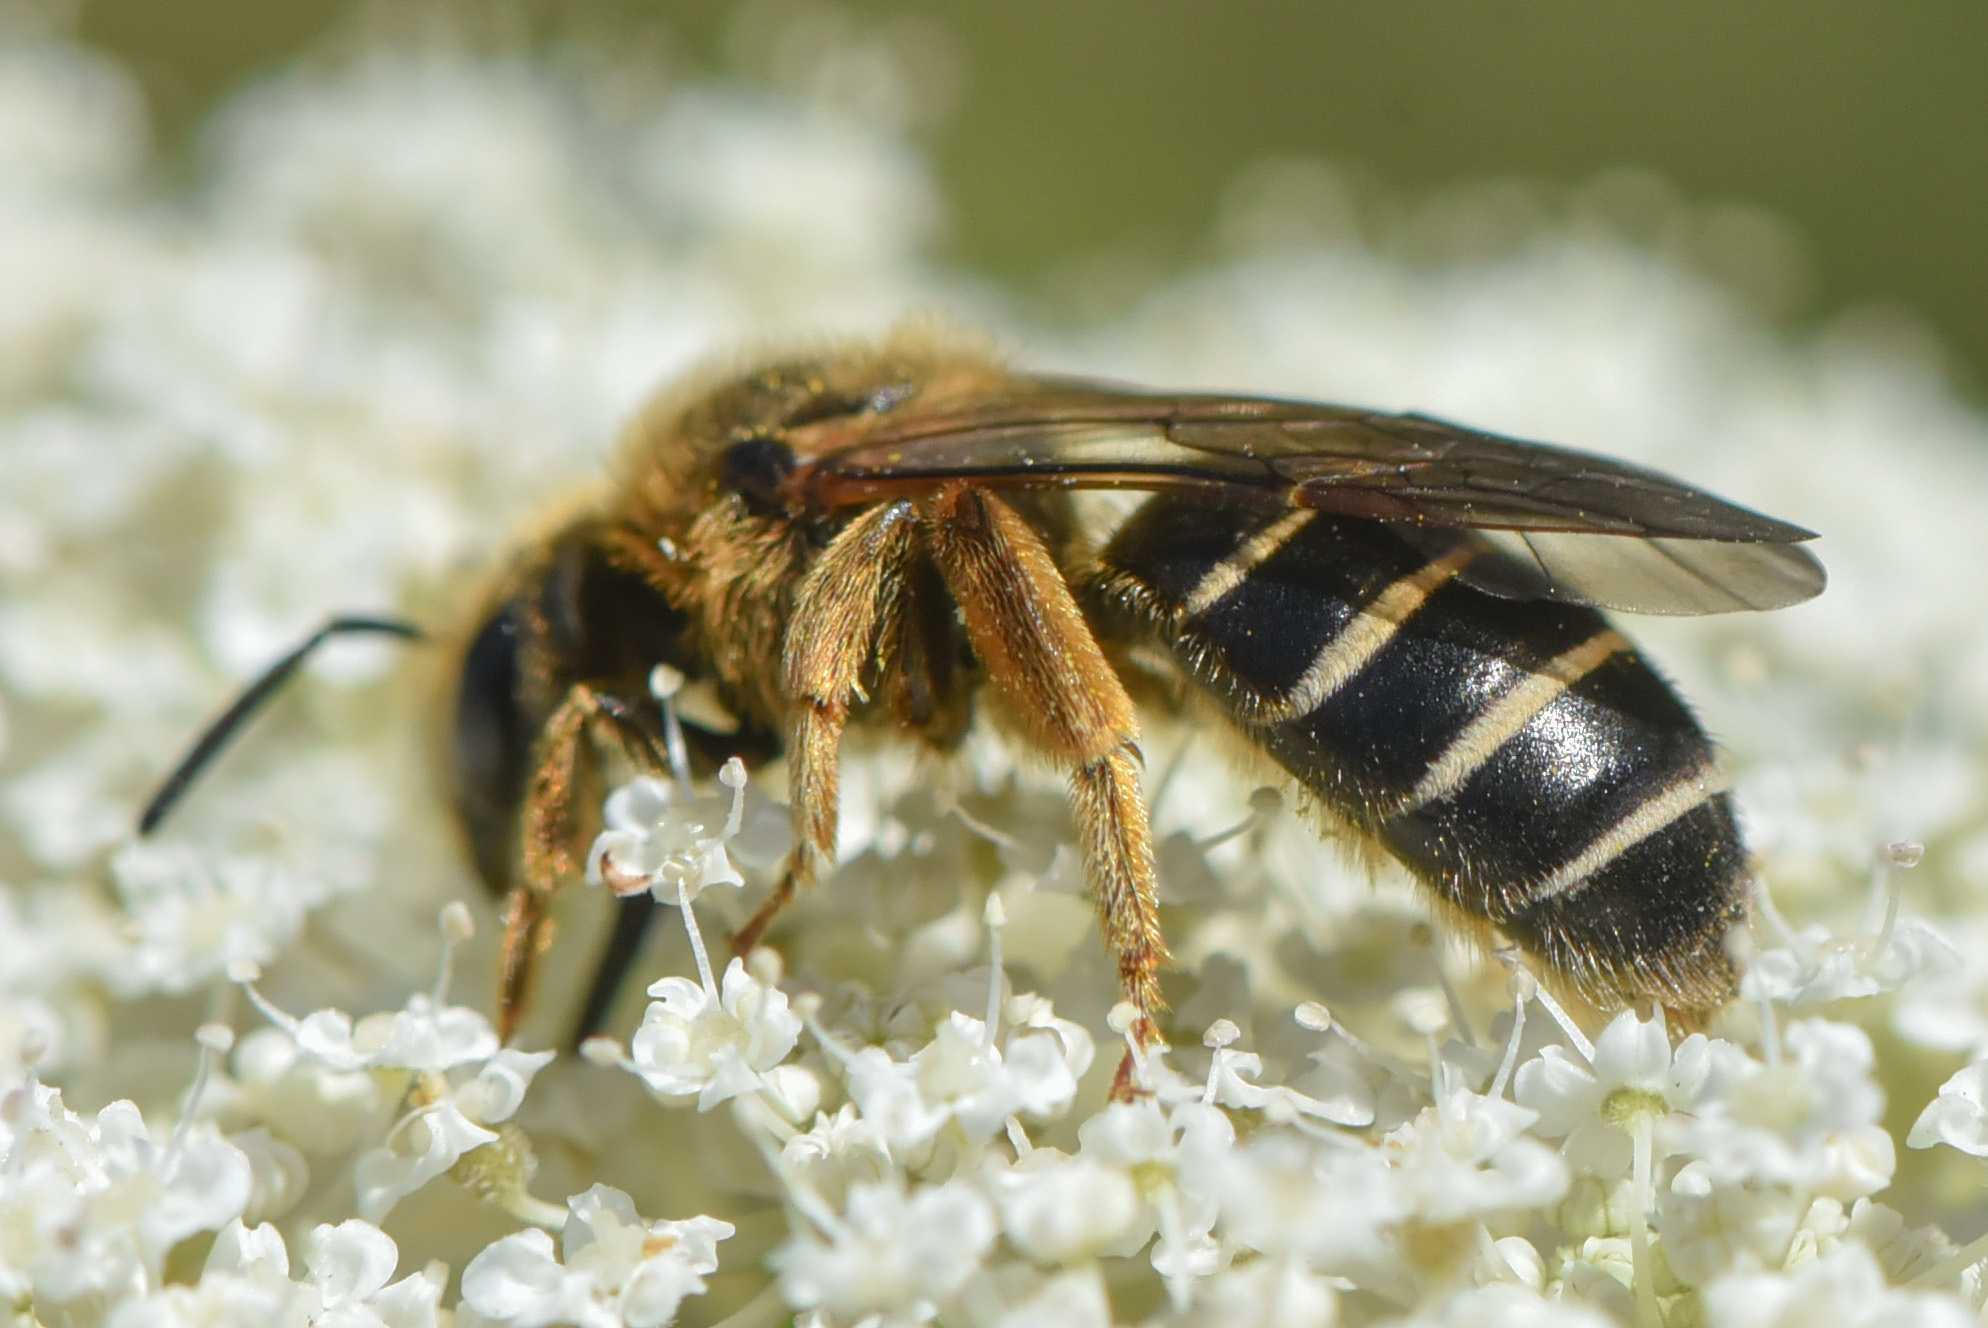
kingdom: Animalia
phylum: Arthropoda
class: Insecta
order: Hymenoptera
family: Halictidae
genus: Halictus
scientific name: Halictus rubicundus
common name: Orange-legged furrow bee
